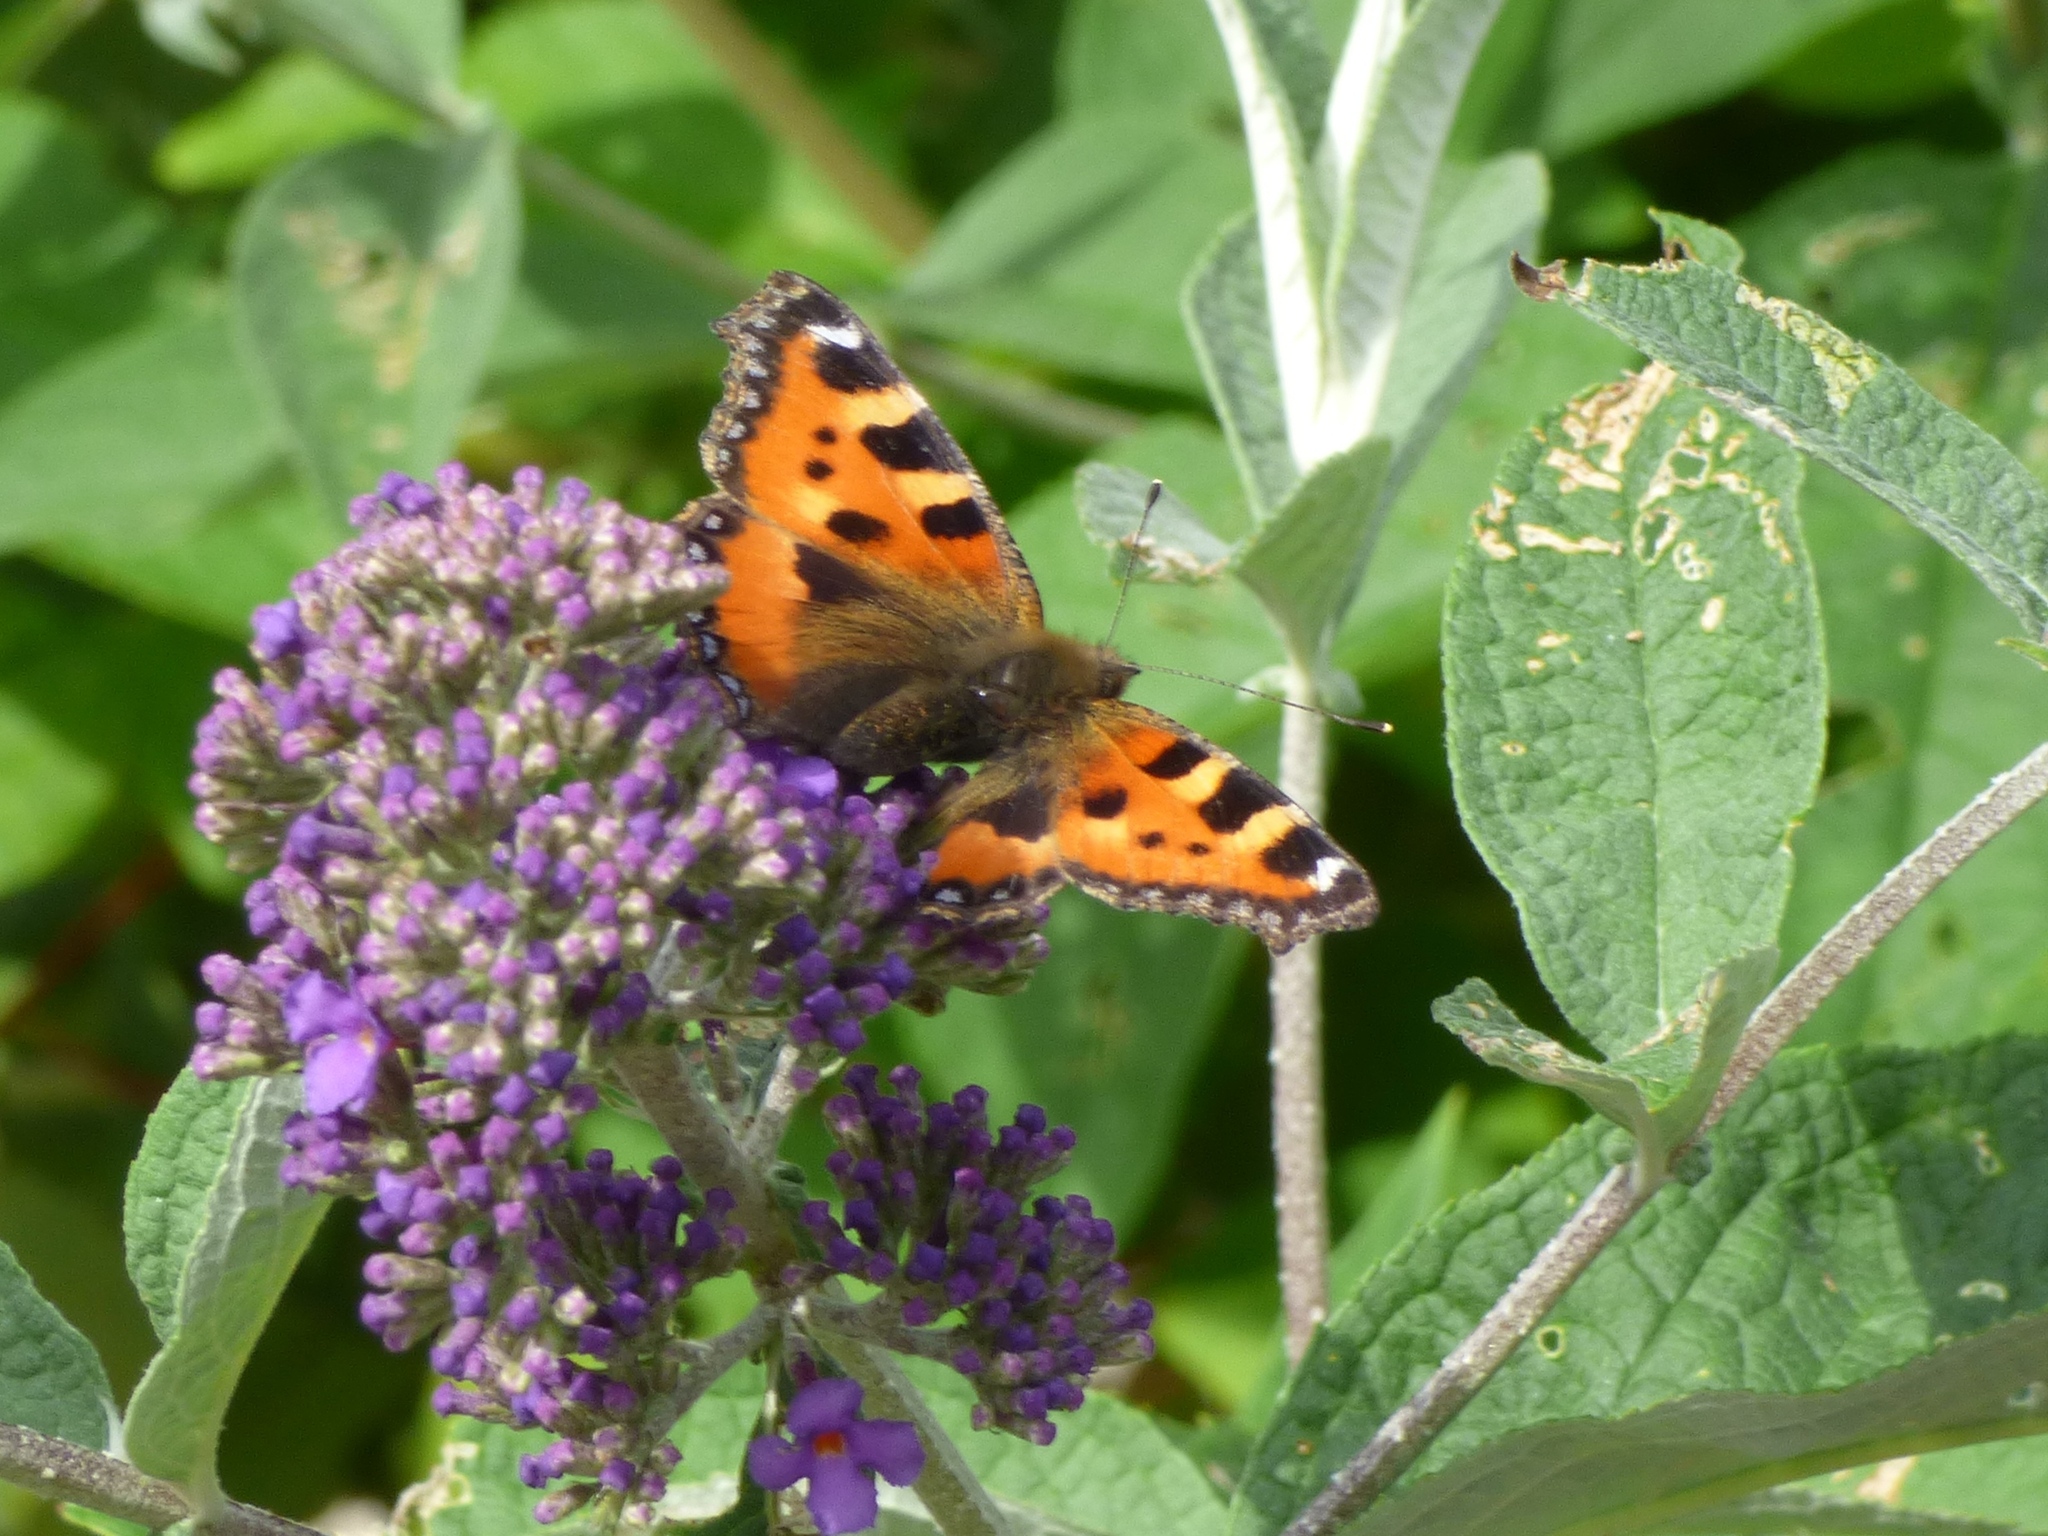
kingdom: Animalia
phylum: Arthropoda
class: Insecta
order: Lepidoptera
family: Nymphalidae
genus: Aglais
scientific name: Aglais urticae
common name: Small tortoiseshell
